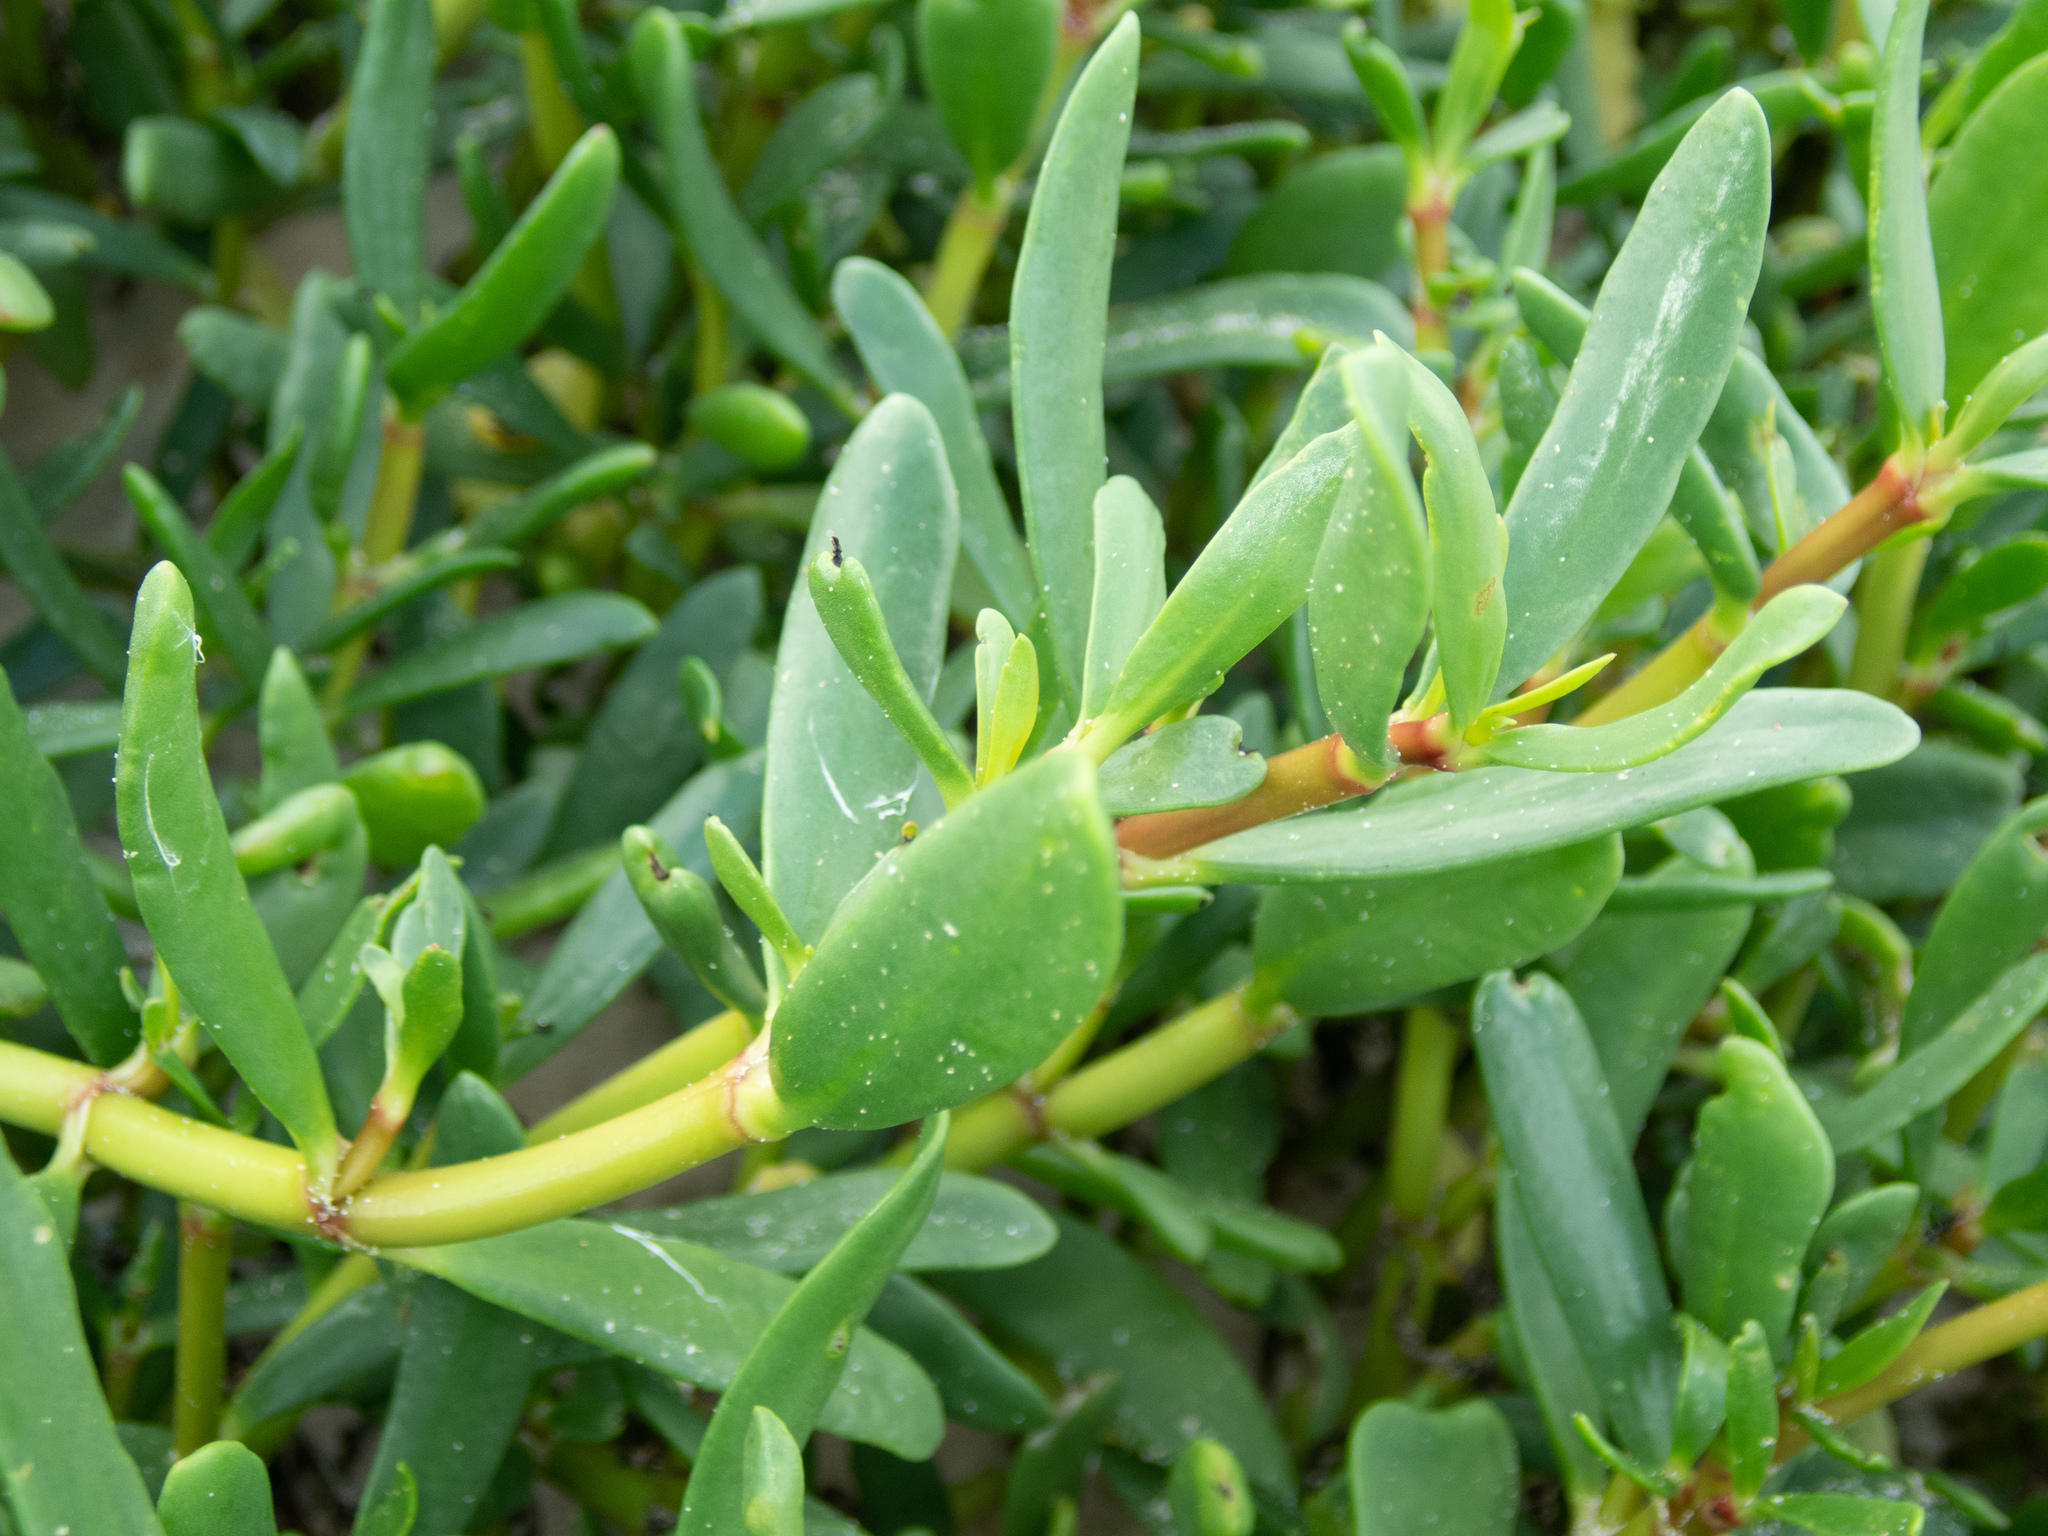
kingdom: Plantae
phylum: Tracheophyta
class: Magnoliopsida
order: Caryophyllales
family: Aizoaceae
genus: Sesuvium
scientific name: Sesuvium portulacastrum
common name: Sea-purslane
